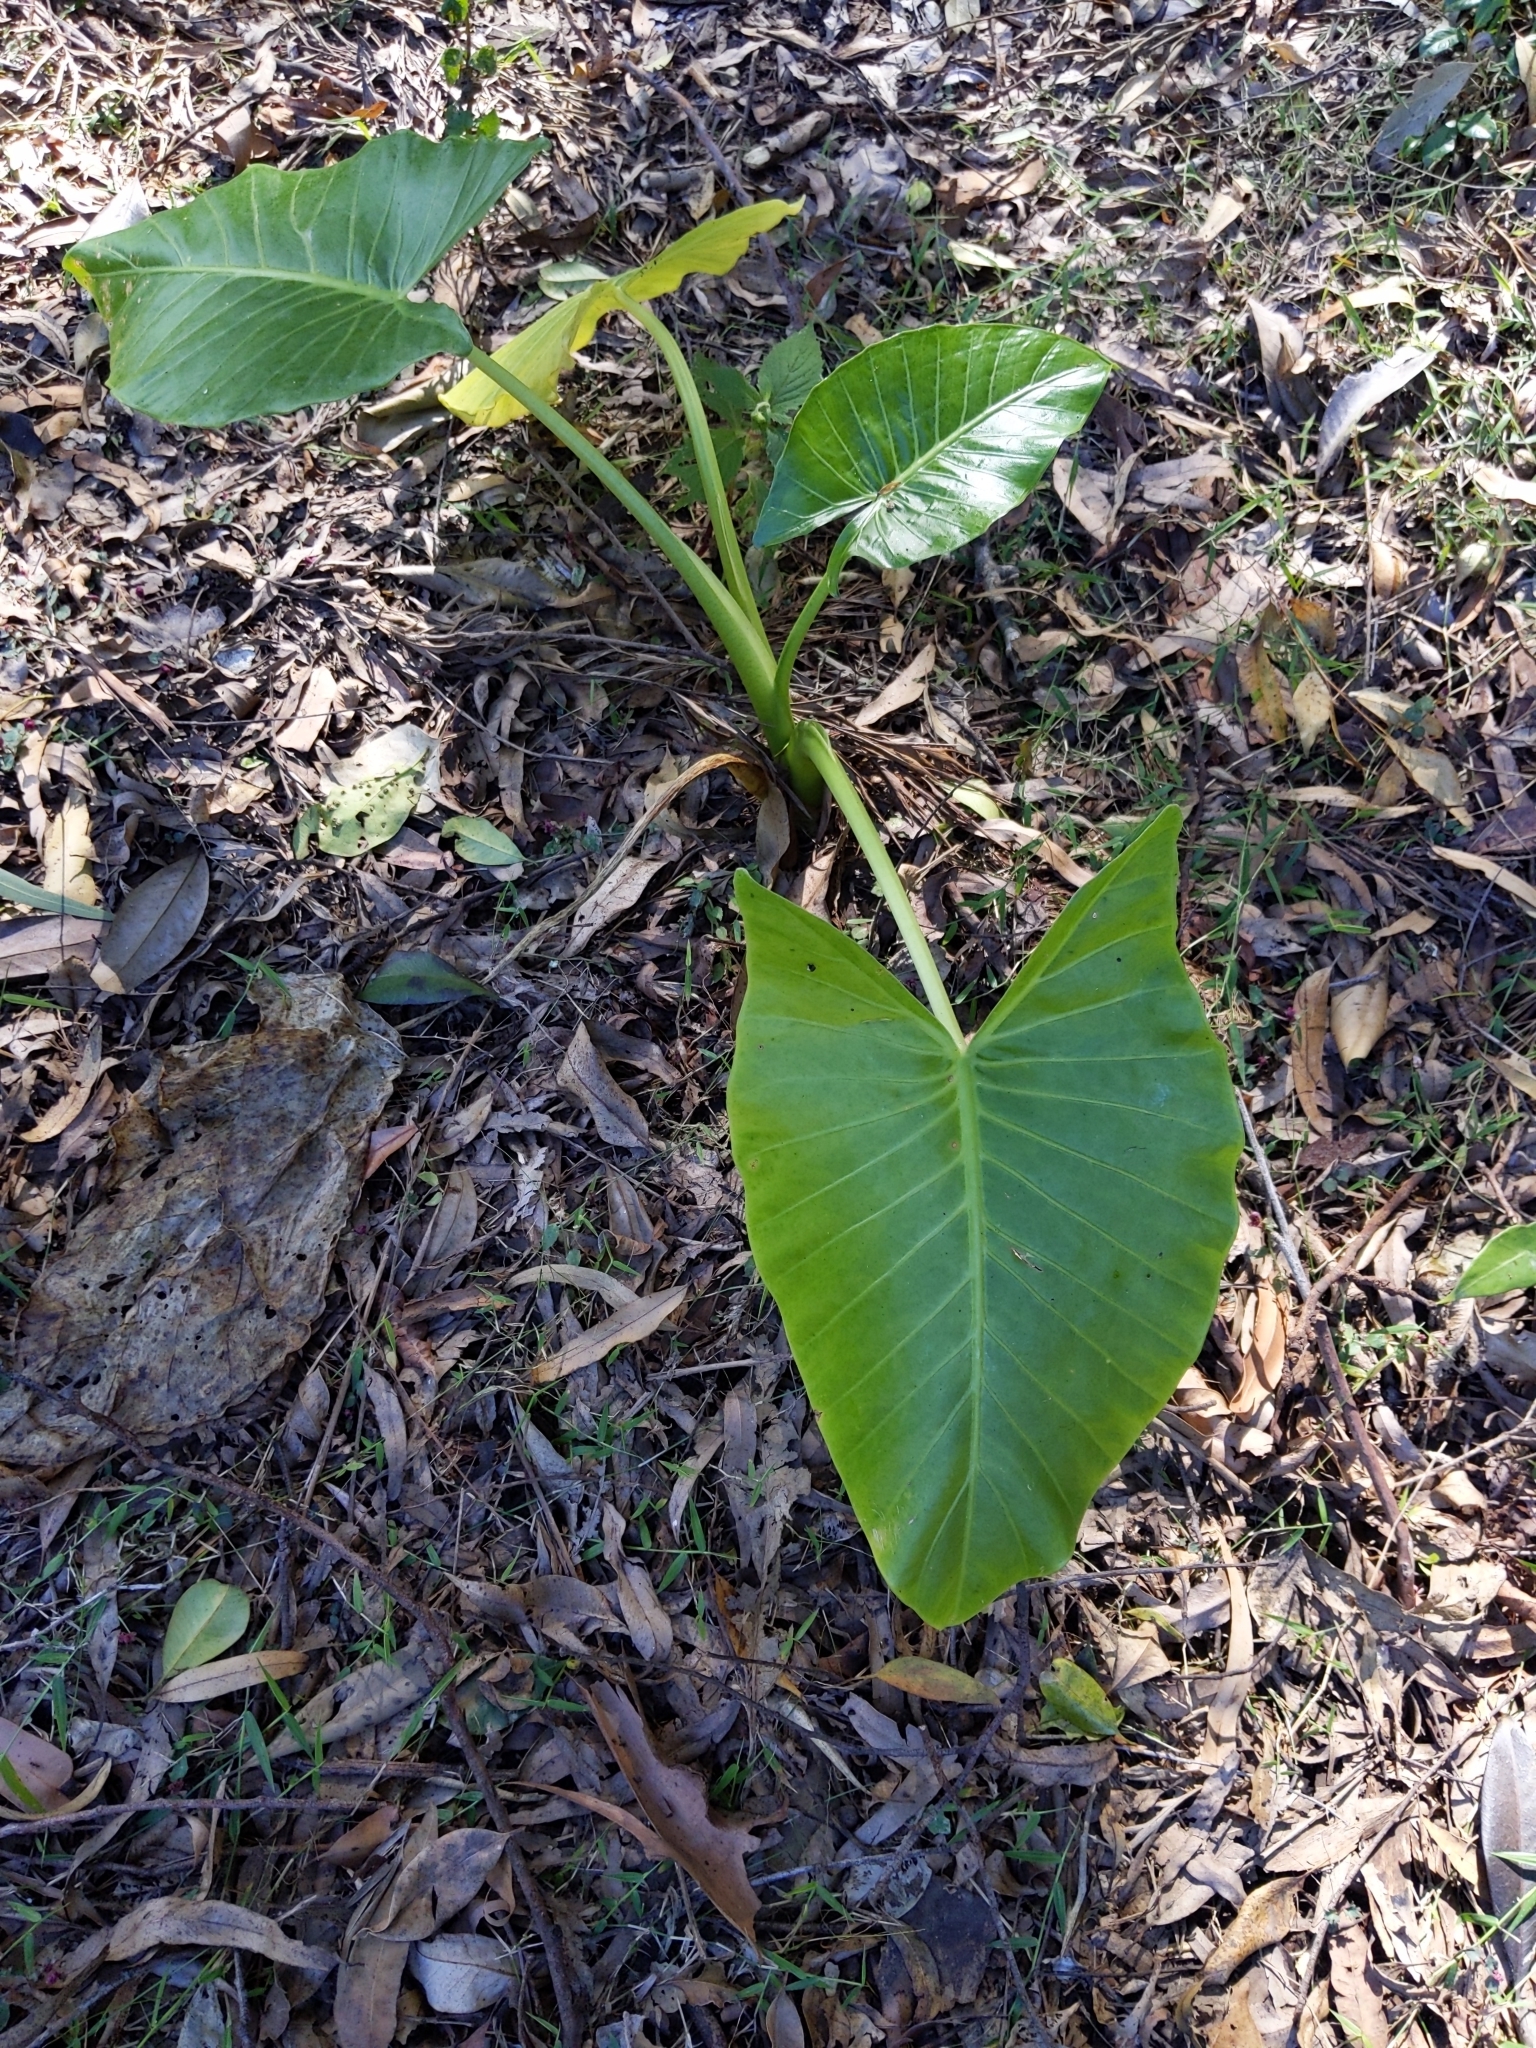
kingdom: Plantae
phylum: Tracheophyta
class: Liliopsida
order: Alismatales
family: Araceae
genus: Alocasia
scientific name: Alocasia brisbanensis
